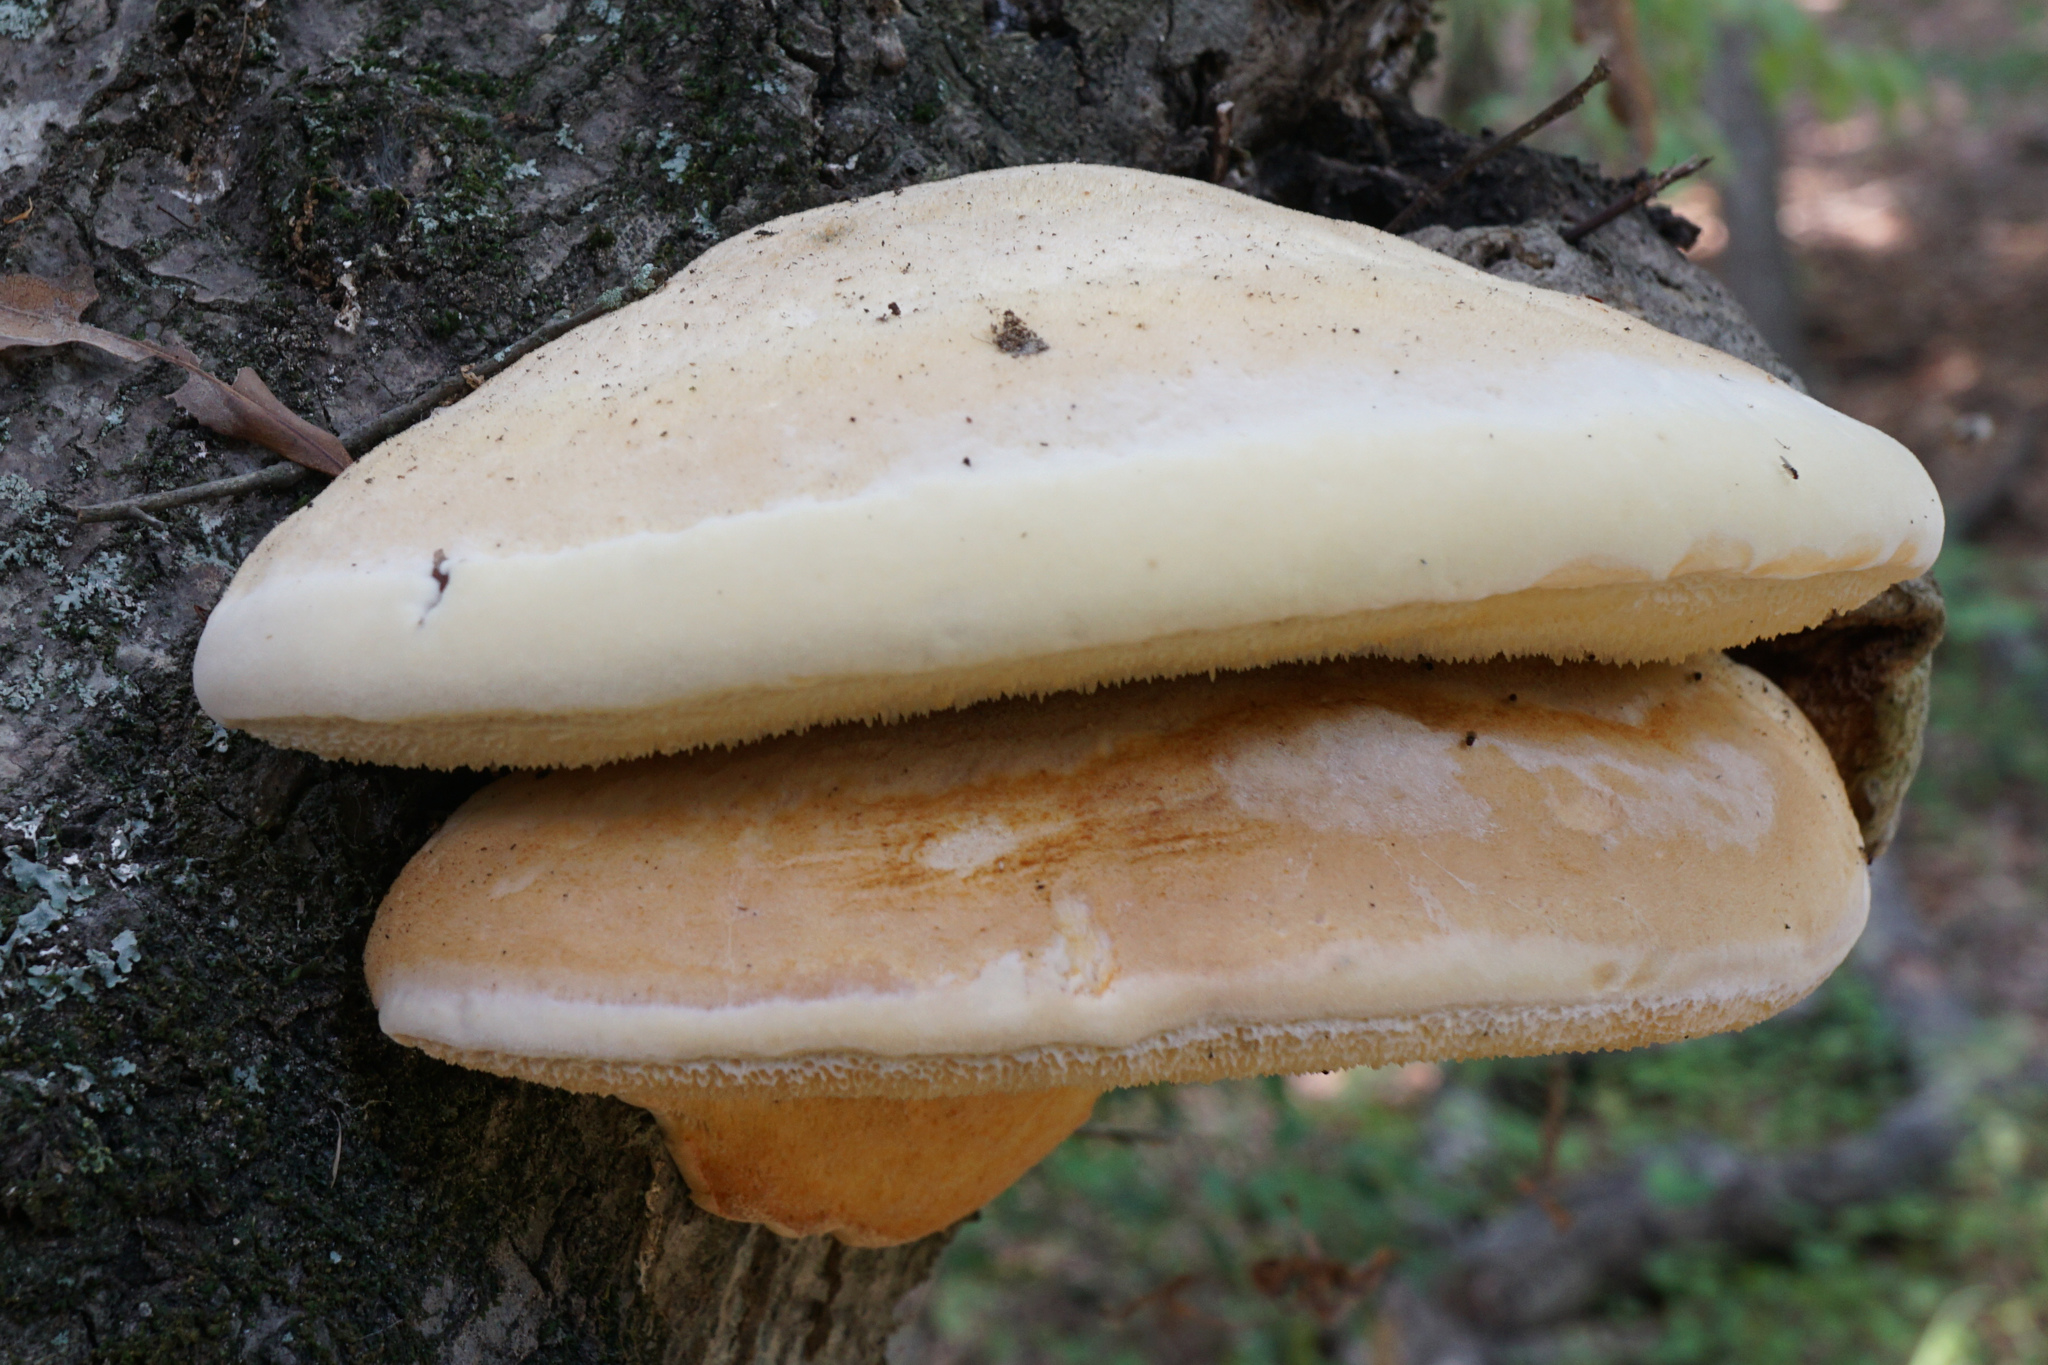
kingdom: Fungi
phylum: Basidiomycota
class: Agaricomycetes
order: Polyporales
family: Meruliaceae
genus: Spongipellis
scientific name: Spongipellis
